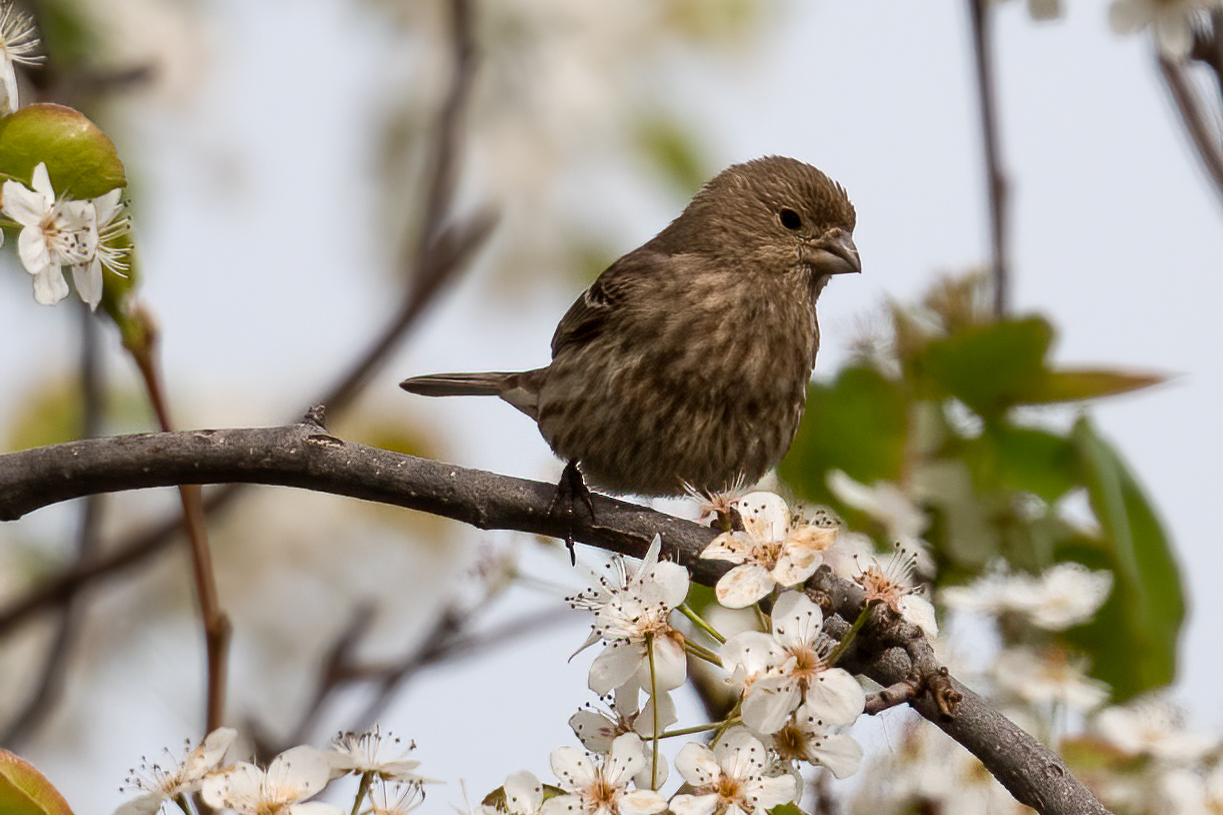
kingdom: Animalia
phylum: Chordata
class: Aves
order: Passeriformes
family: Fringillidae
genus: Haemorhous
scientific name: Haemorhous mexicanus
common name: House finch
